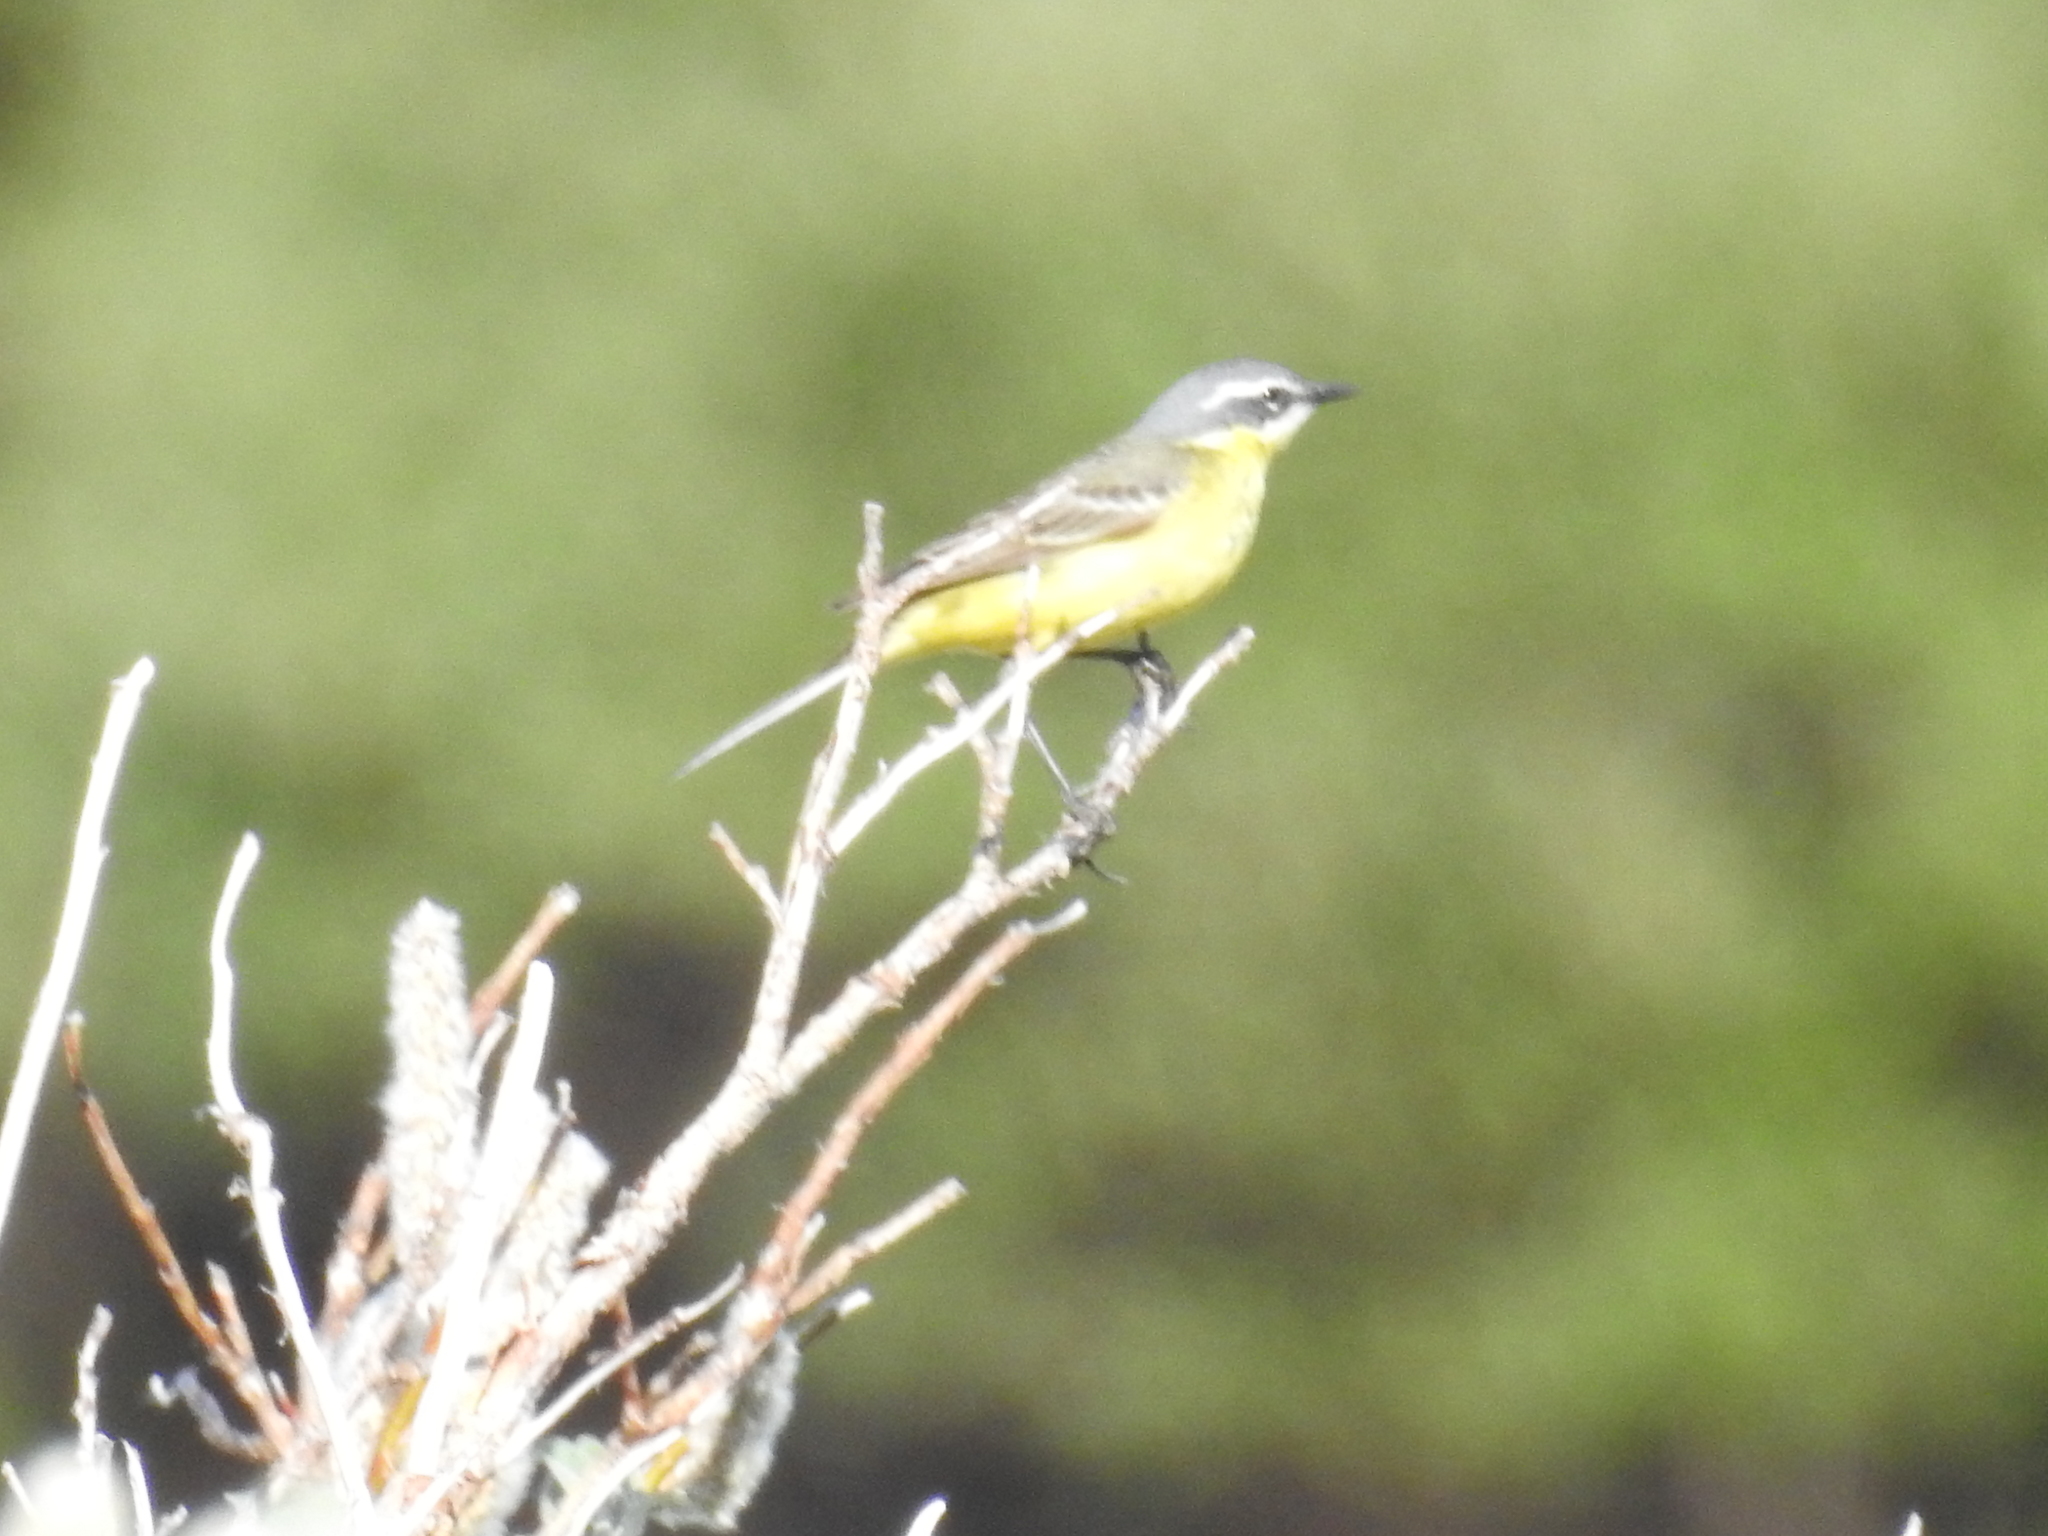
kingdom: Animalia
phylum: Chordata
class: Aves
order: Passeriformes
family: Motacillidae
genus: Motacilla
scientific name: Motacilla tschutschensis
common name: Eastern yellow wagtail
